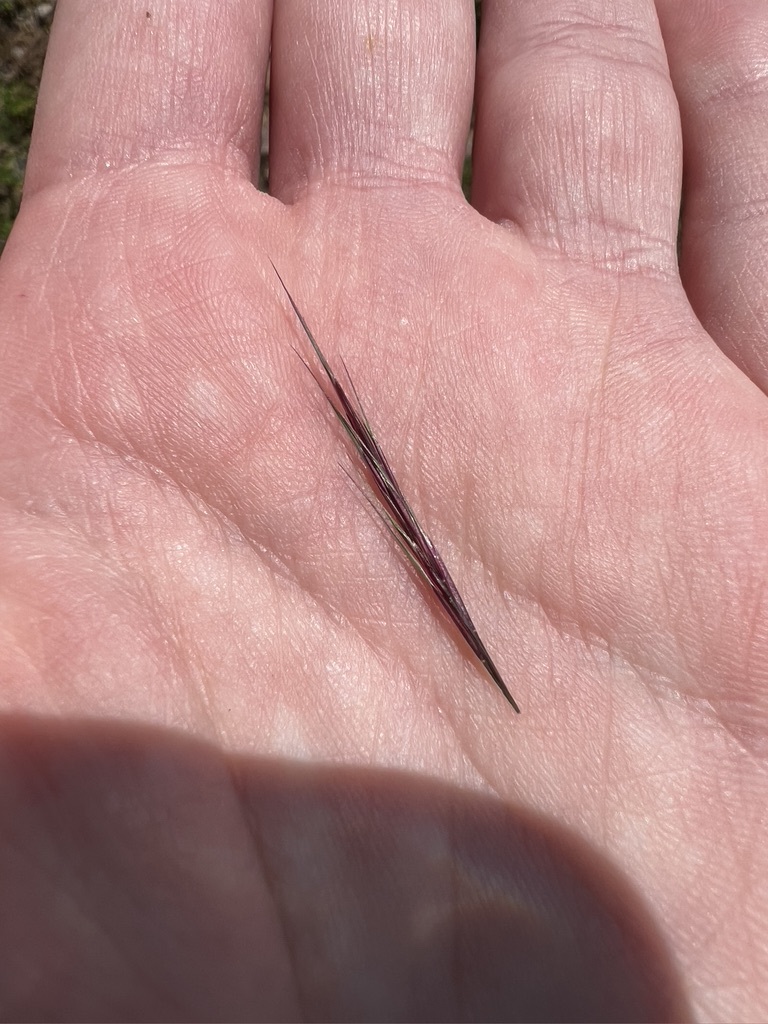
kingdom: Plantae
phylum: Tracheophyta
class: Liliopsida
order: Poales
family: Poaceae
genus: Muhlenbergia
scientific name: Muhlenbergia microsperma
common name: Littleseed muhly
